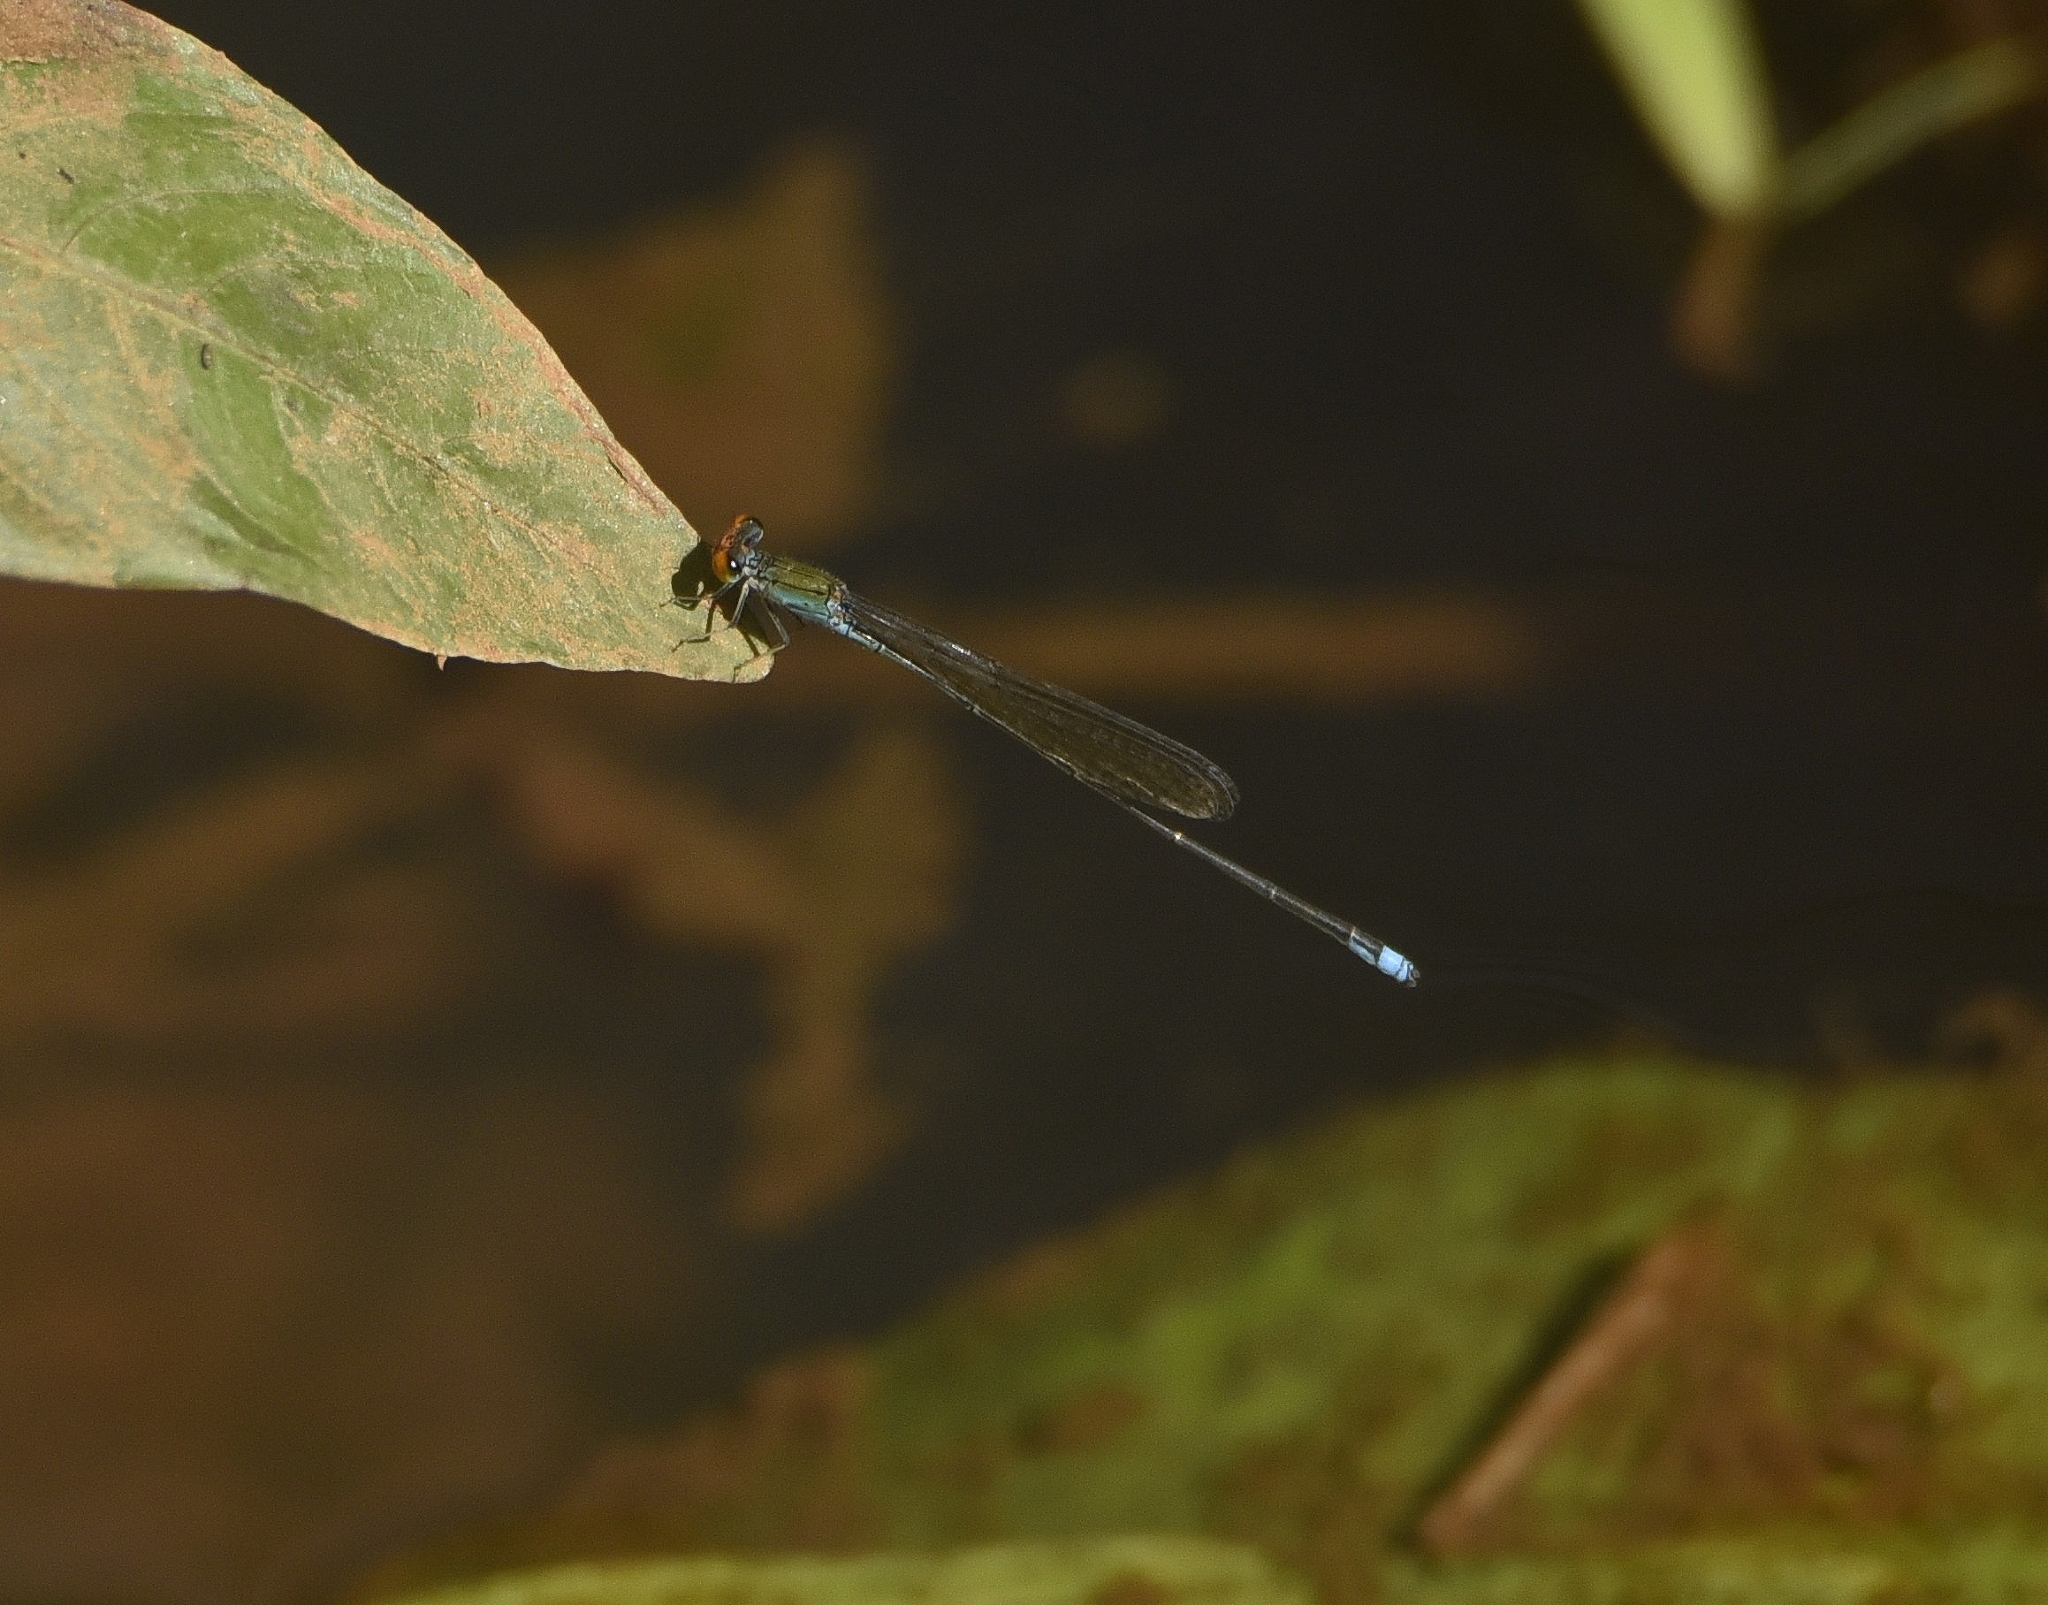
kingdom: Animalia
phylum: Arthropoda
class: Insecta
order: Odonata
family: Coenagrionidae
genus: Pseudagrion
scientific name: Pseudagrion rubriceps
